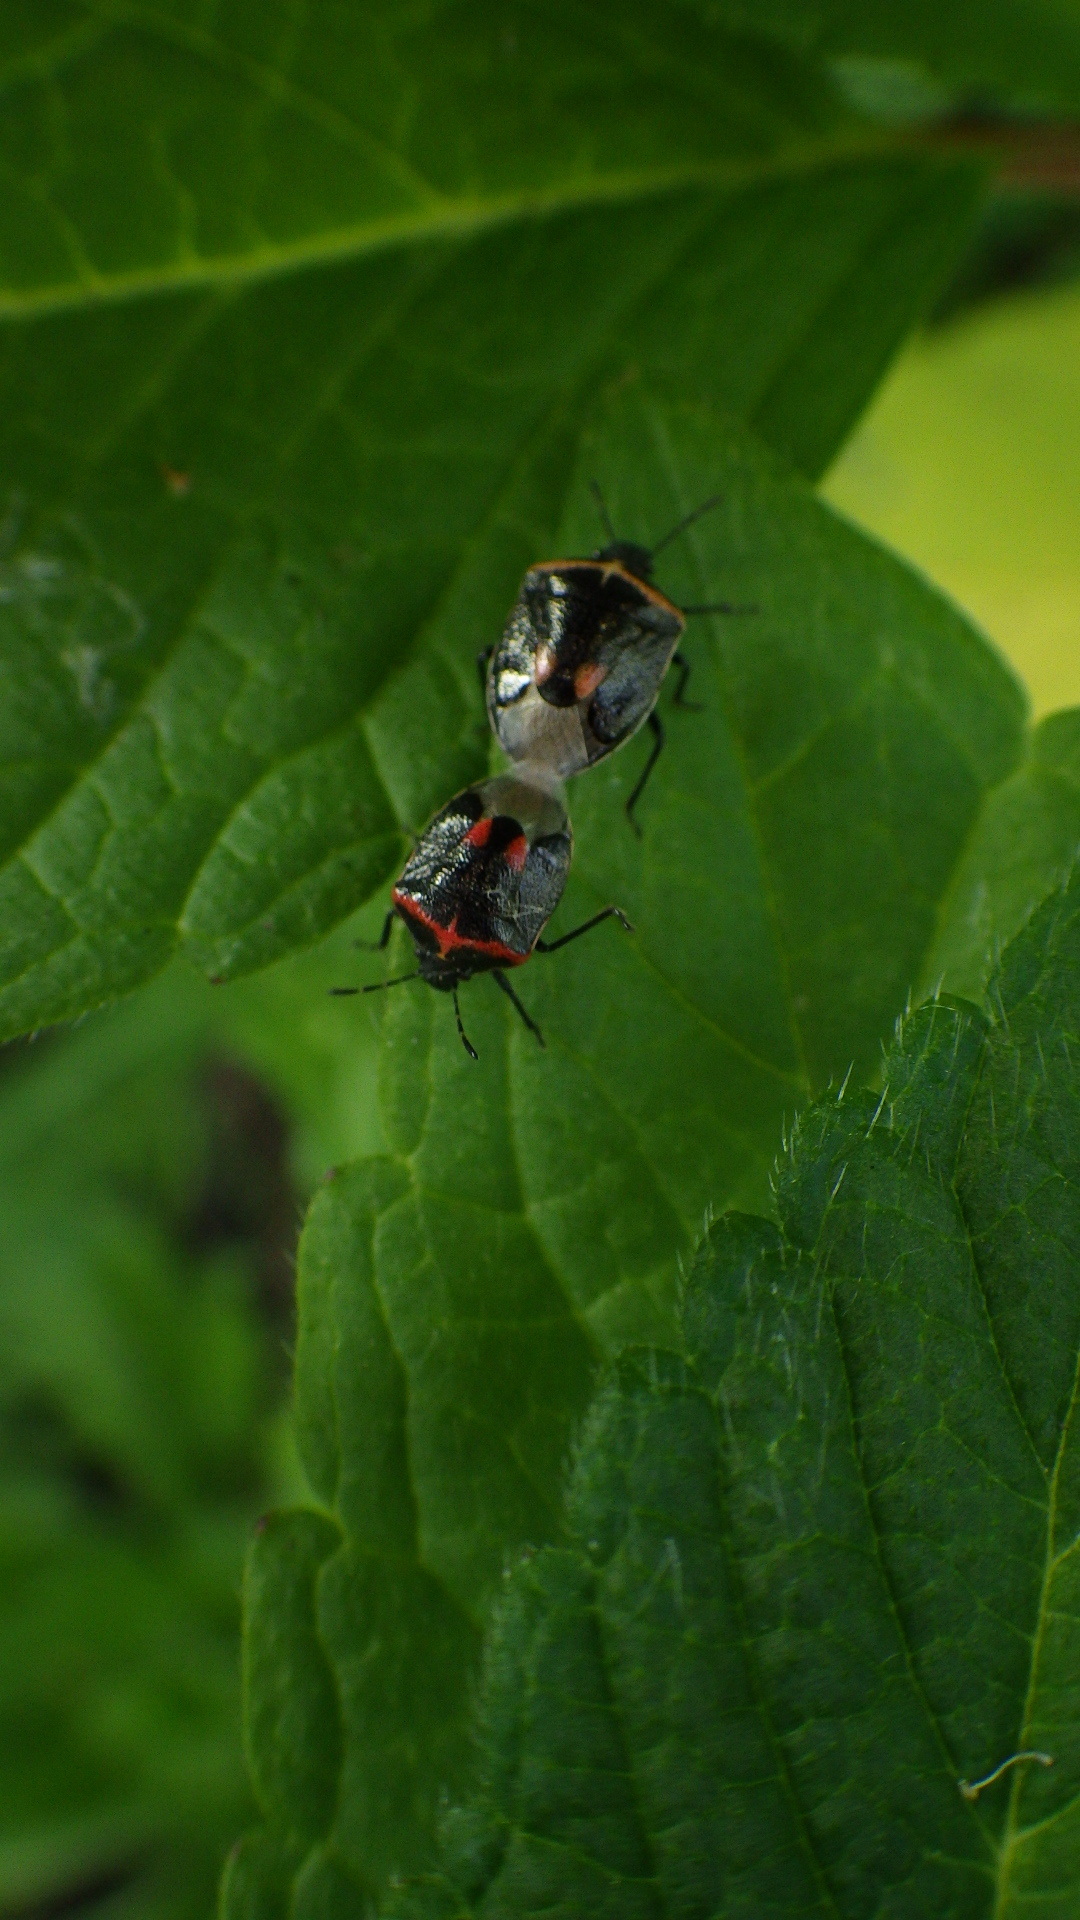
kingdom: Animalia
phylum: Arthropoda
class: Insecta
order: Hemiptera
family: Pentatomidae
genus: Cosmopepla
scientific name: Cosmopepla lintneriana
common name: Twice-stabbed stink bug
